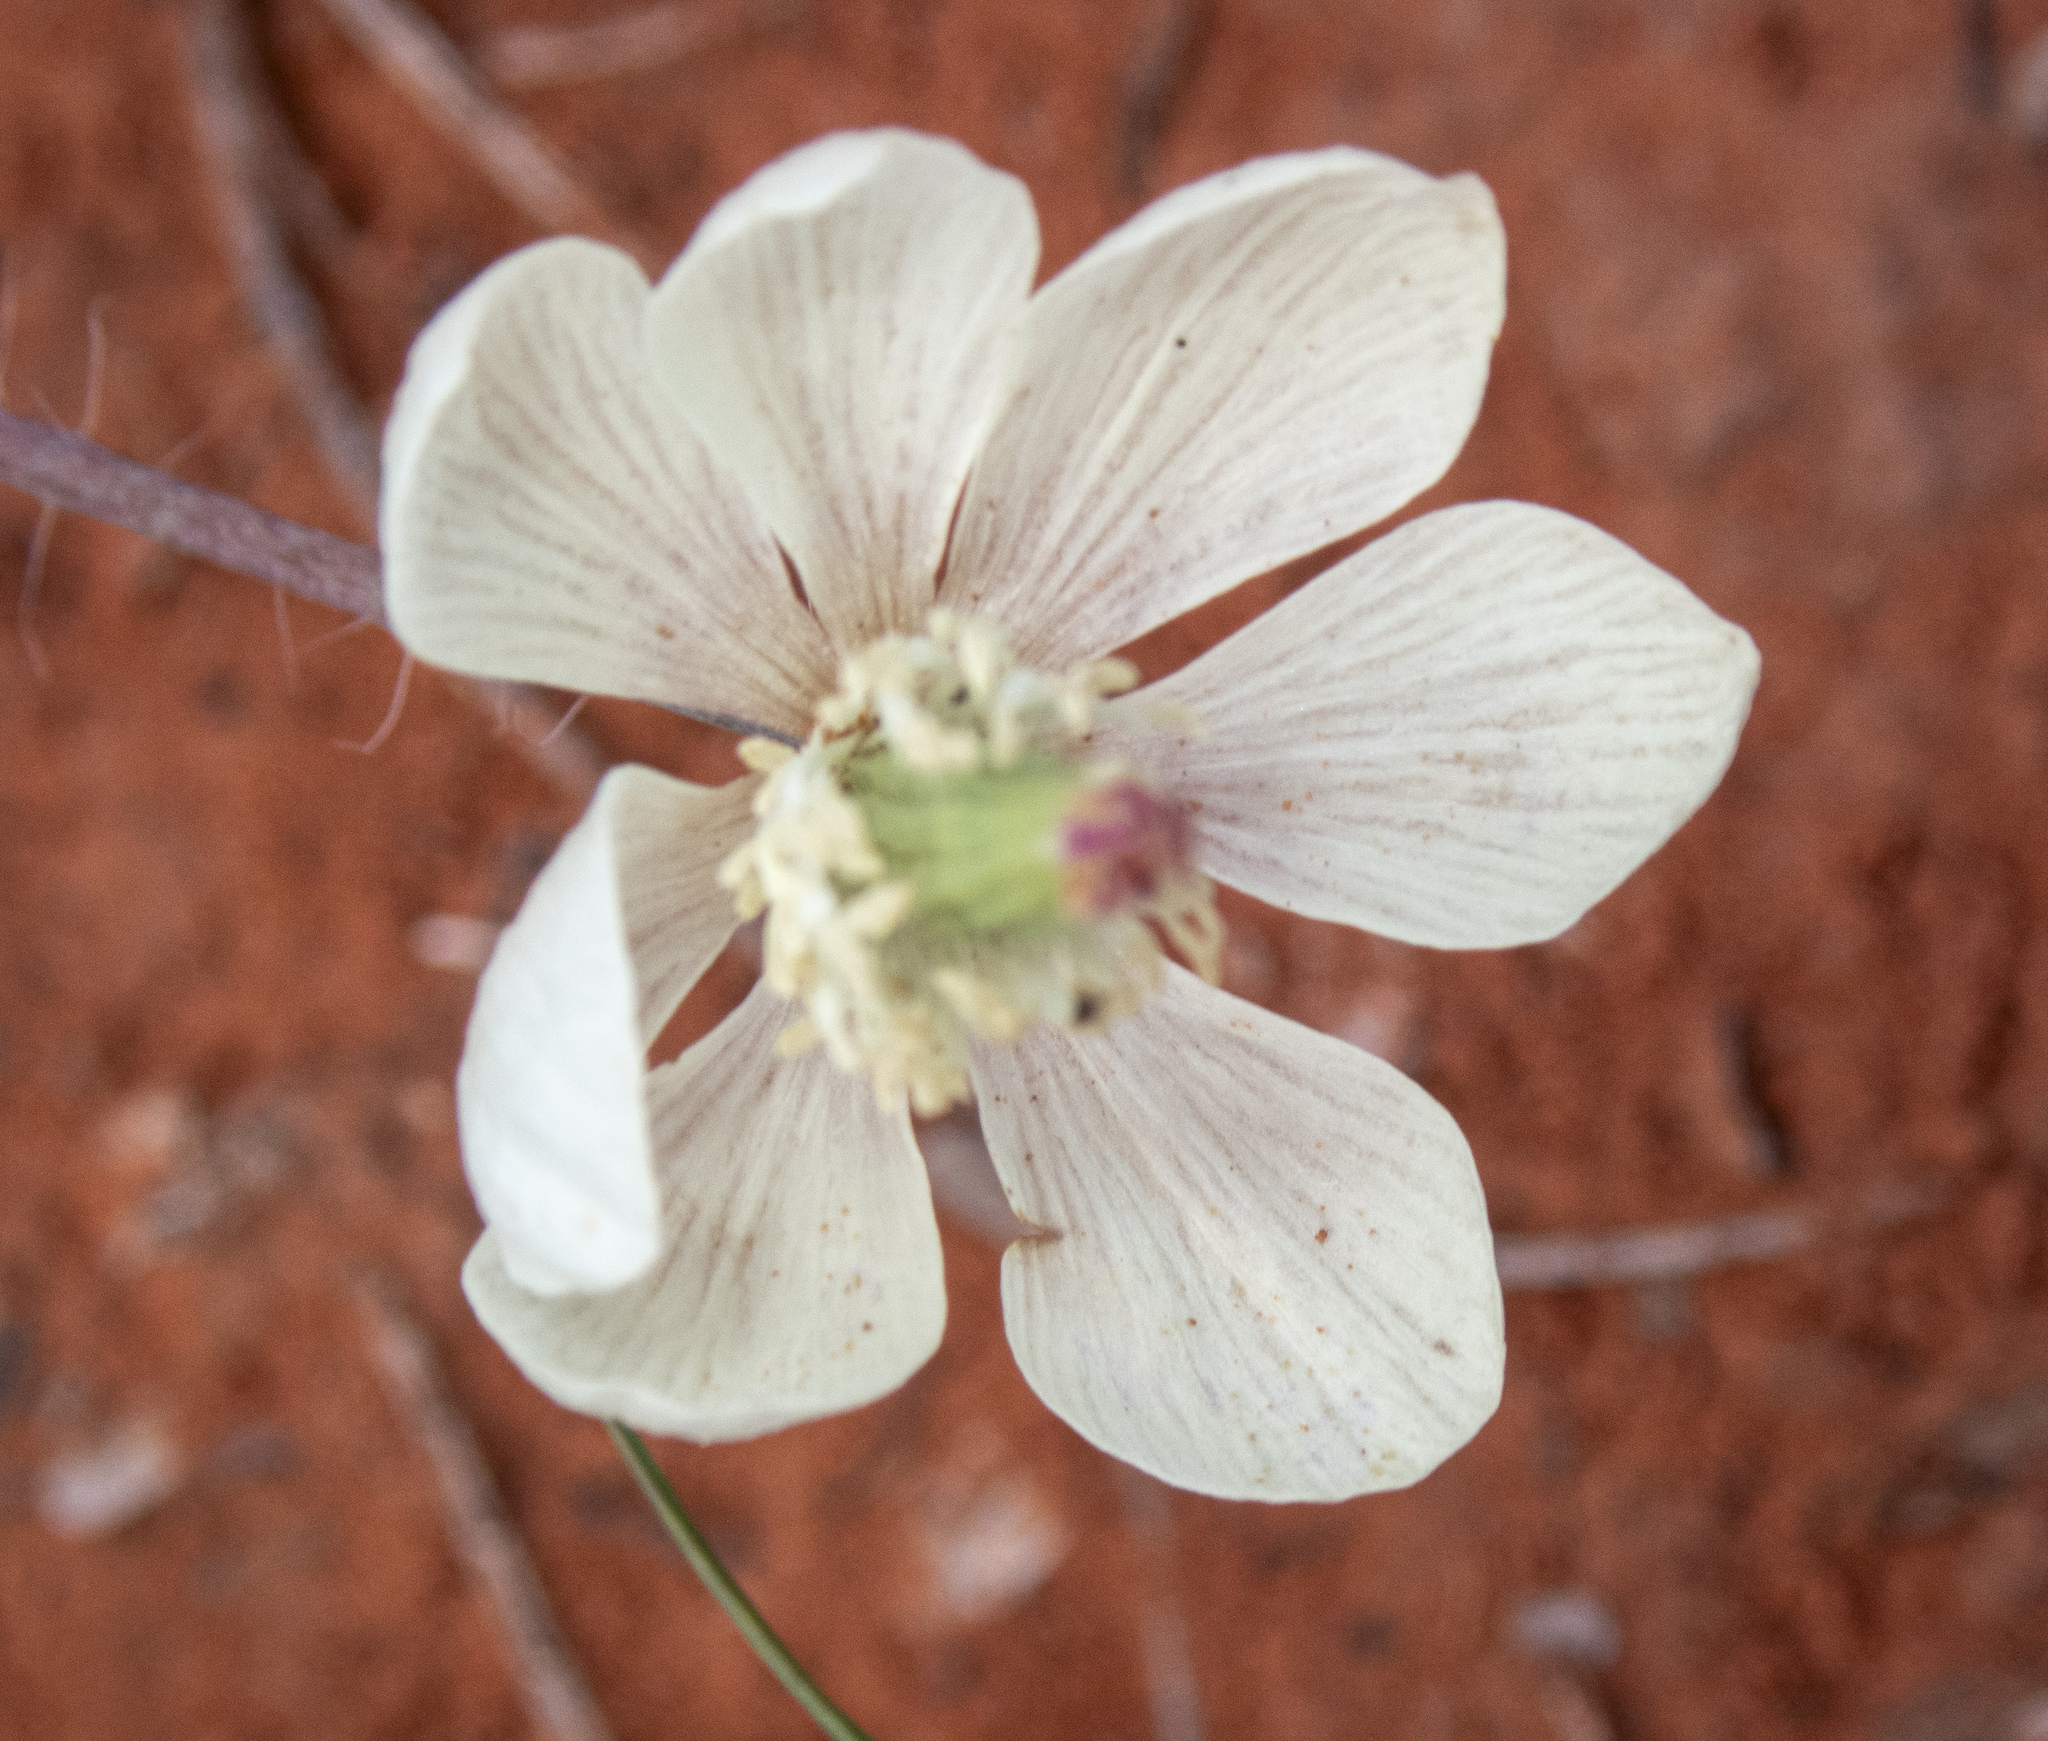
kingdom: Plantae
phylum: Tracheophyta
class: Magnoliopsida
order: Ranunculales
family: Papaveraceae
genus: Platystemon
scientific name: Platystemon californicus
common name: Cream-cups
